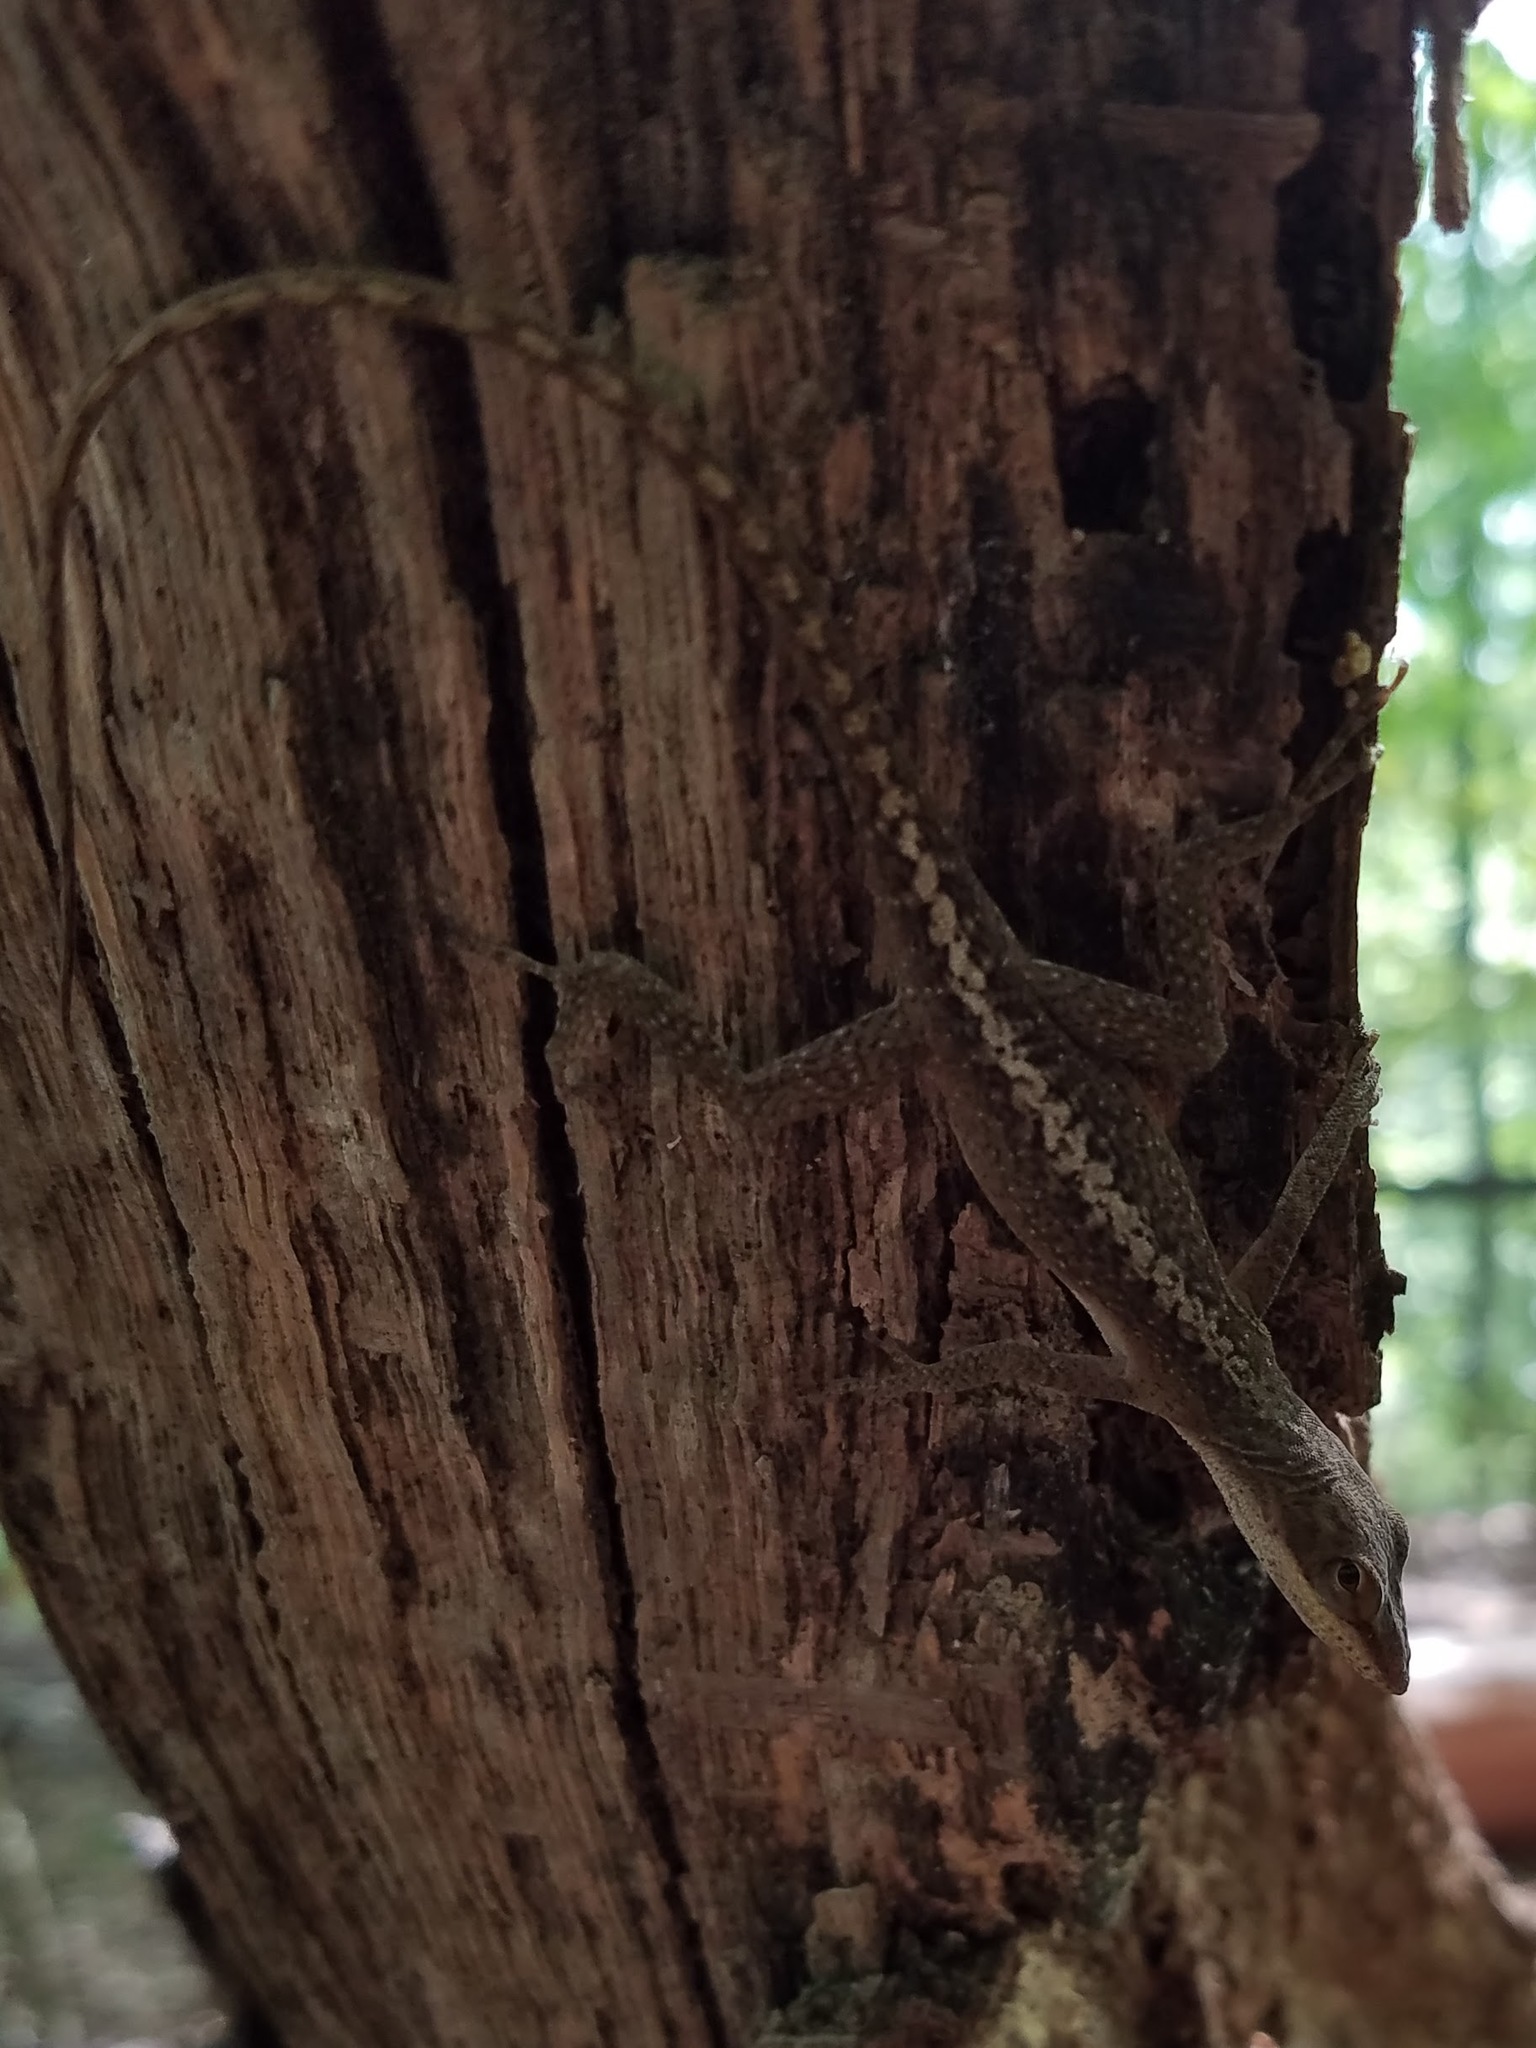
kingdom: Animalia
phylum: Chordata
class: Squamata
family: Dactyloidae
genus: Anolis
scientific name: Anolis carolinensis
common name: Green anole
